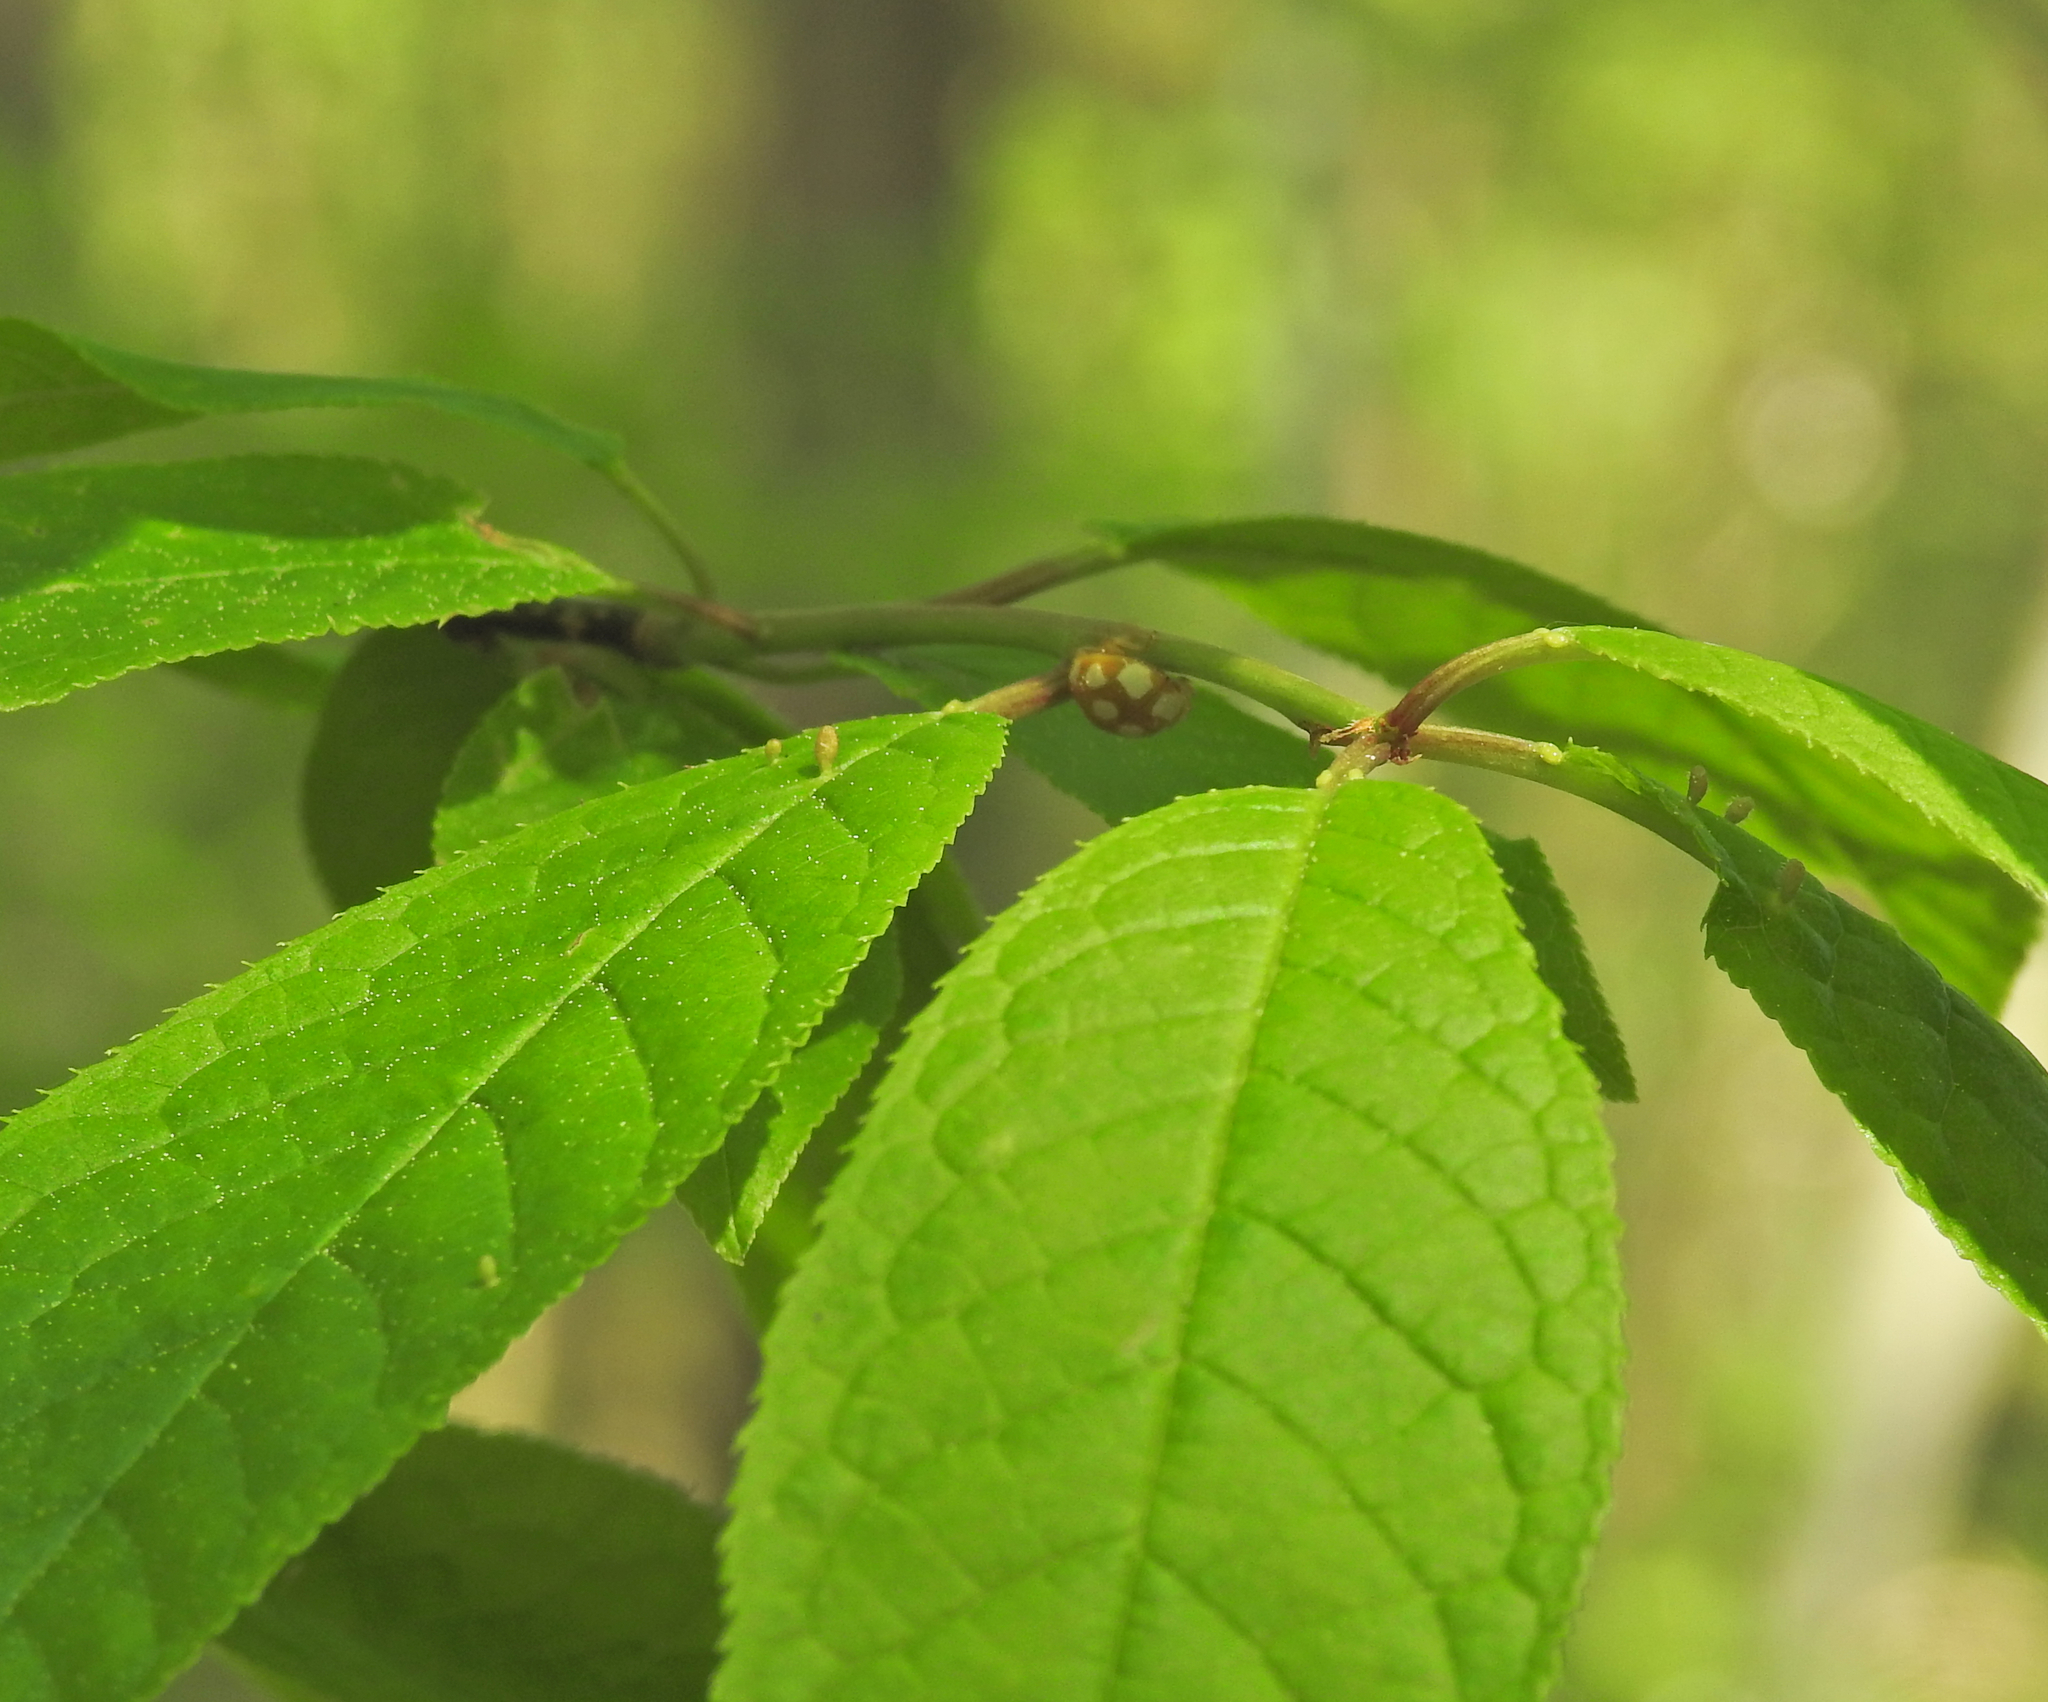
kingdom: Animalia
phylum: Arthropoda
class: Insecta
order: Coleoptera
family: Coccinellidae
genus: Calvia
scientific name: Calvia decemguttata
